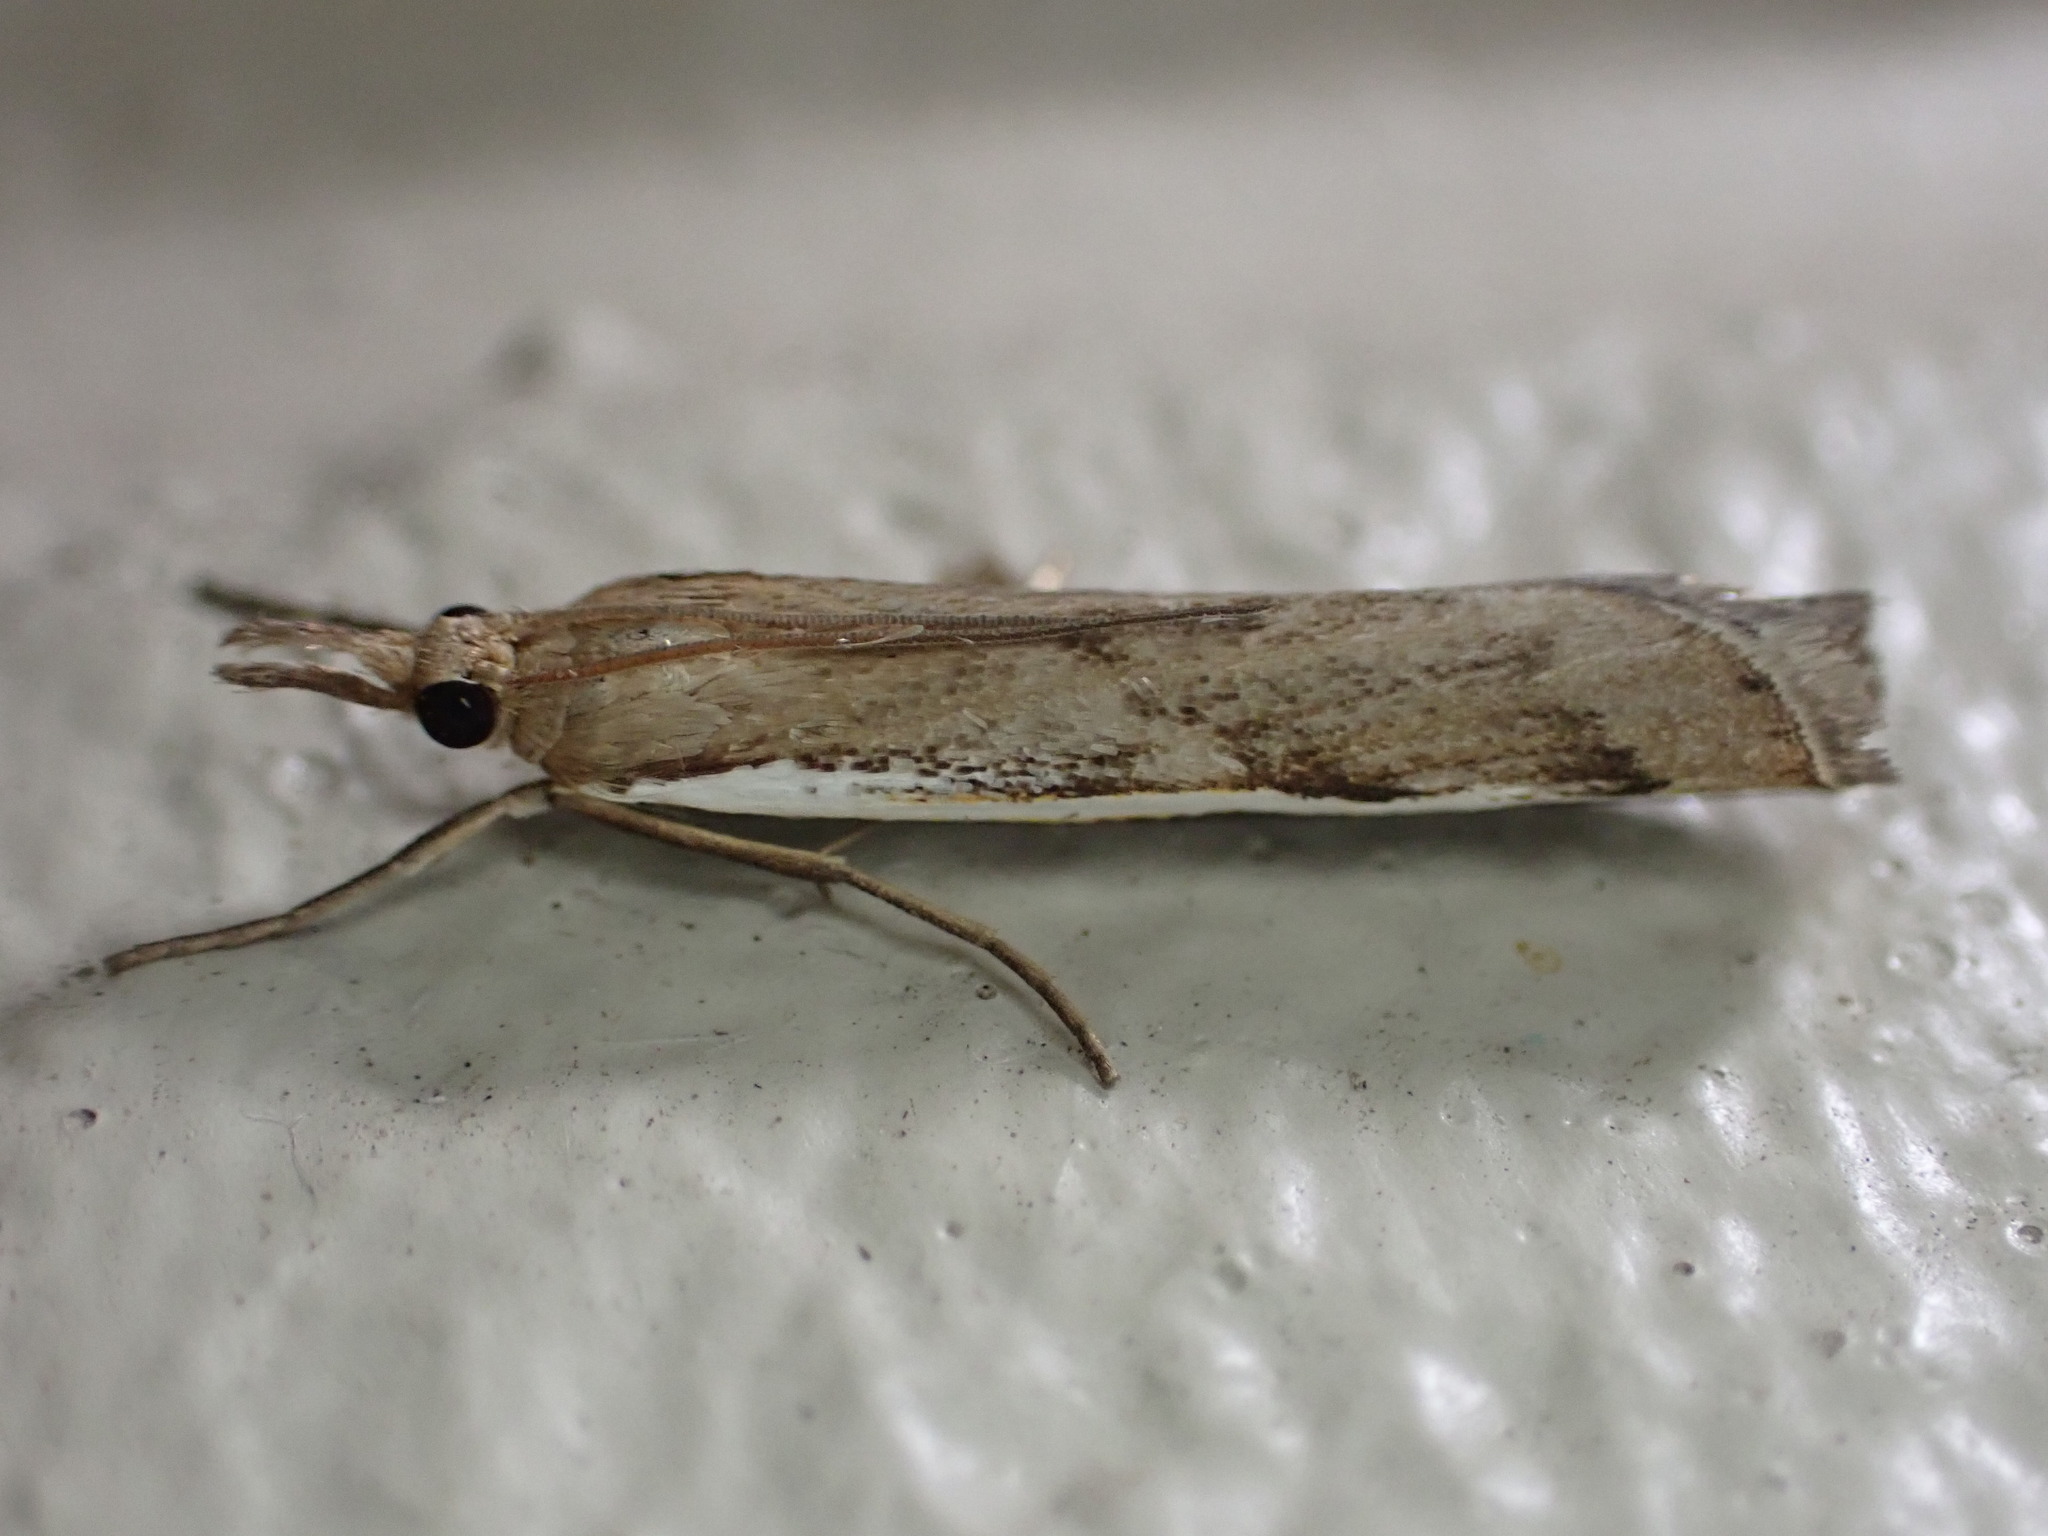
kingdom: Animalia
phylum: Arthropoda
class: Insecta
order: Lepidoptera
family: Crambidae
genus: Orocrambus
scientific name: Orocrambus flexuosellus
